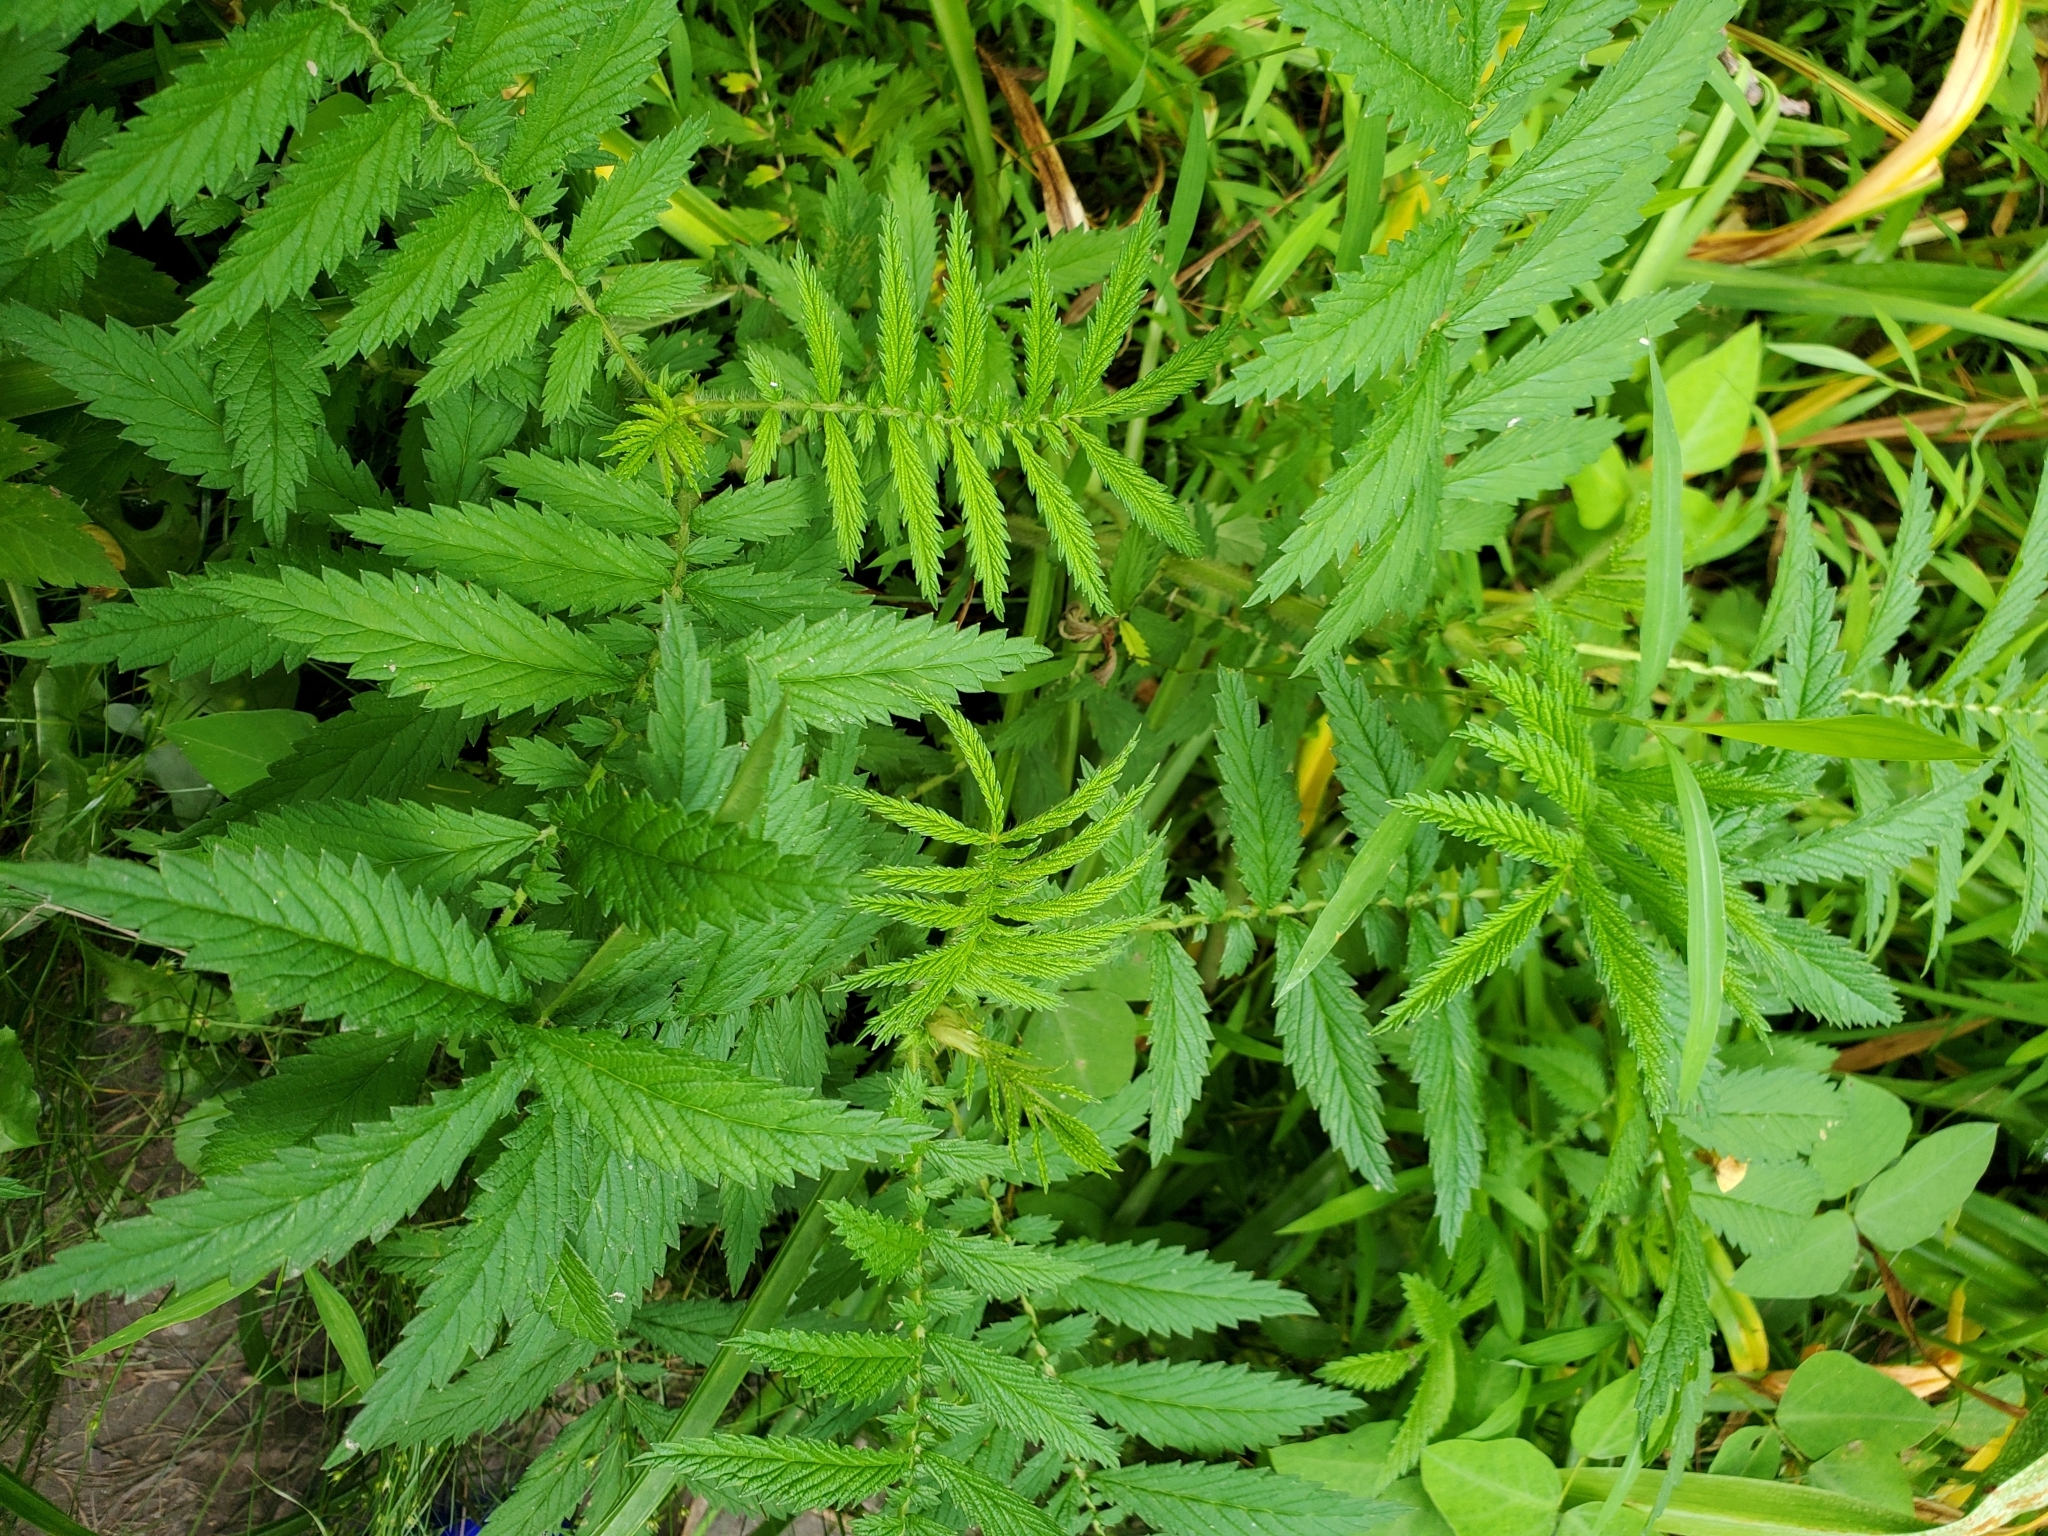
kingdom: Plantae
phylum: Tracheophyta
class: Magnoliopsida
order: Rosales
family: Rosaceae
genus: Agrimonia
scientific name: Agrimonia parviflora
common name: Harvest-lice
